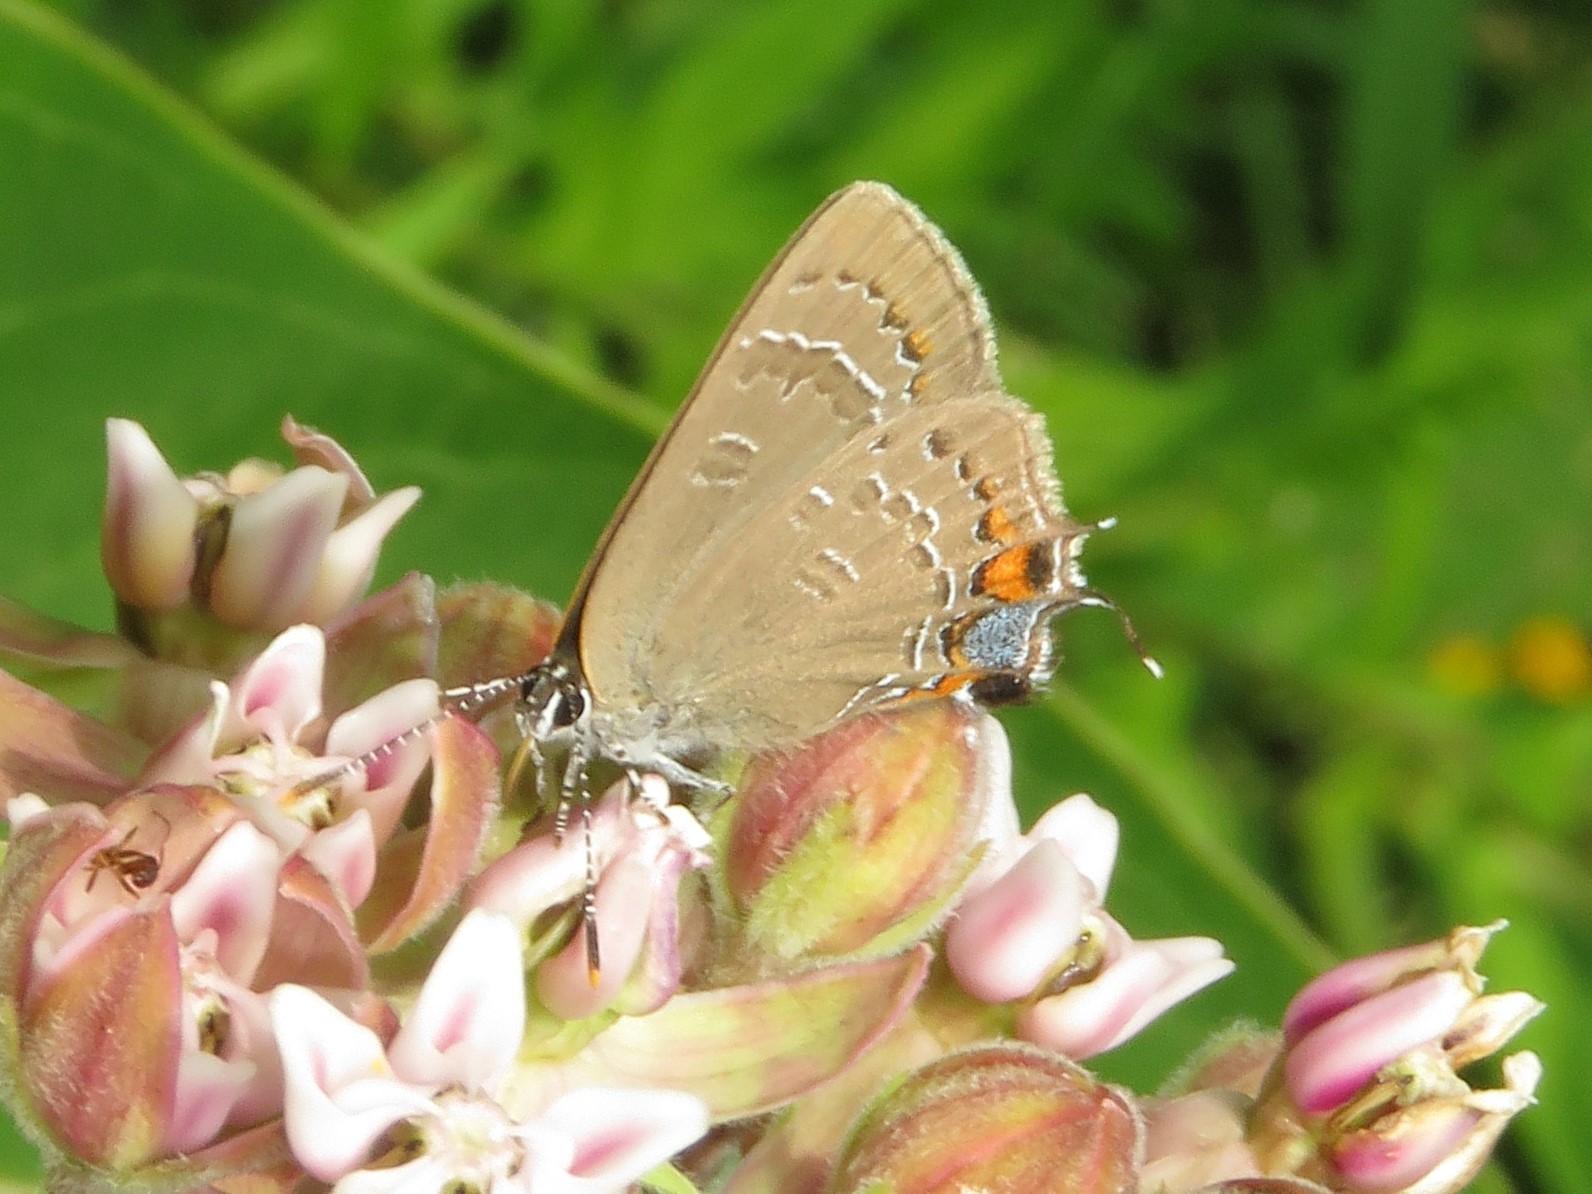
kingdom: Animalia
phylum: Arthropoda
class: Insecta
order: Lepidoptera
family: Lycaenidae
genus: Satyrium
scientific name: Satyrium calanus
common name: Banded hairstreak
